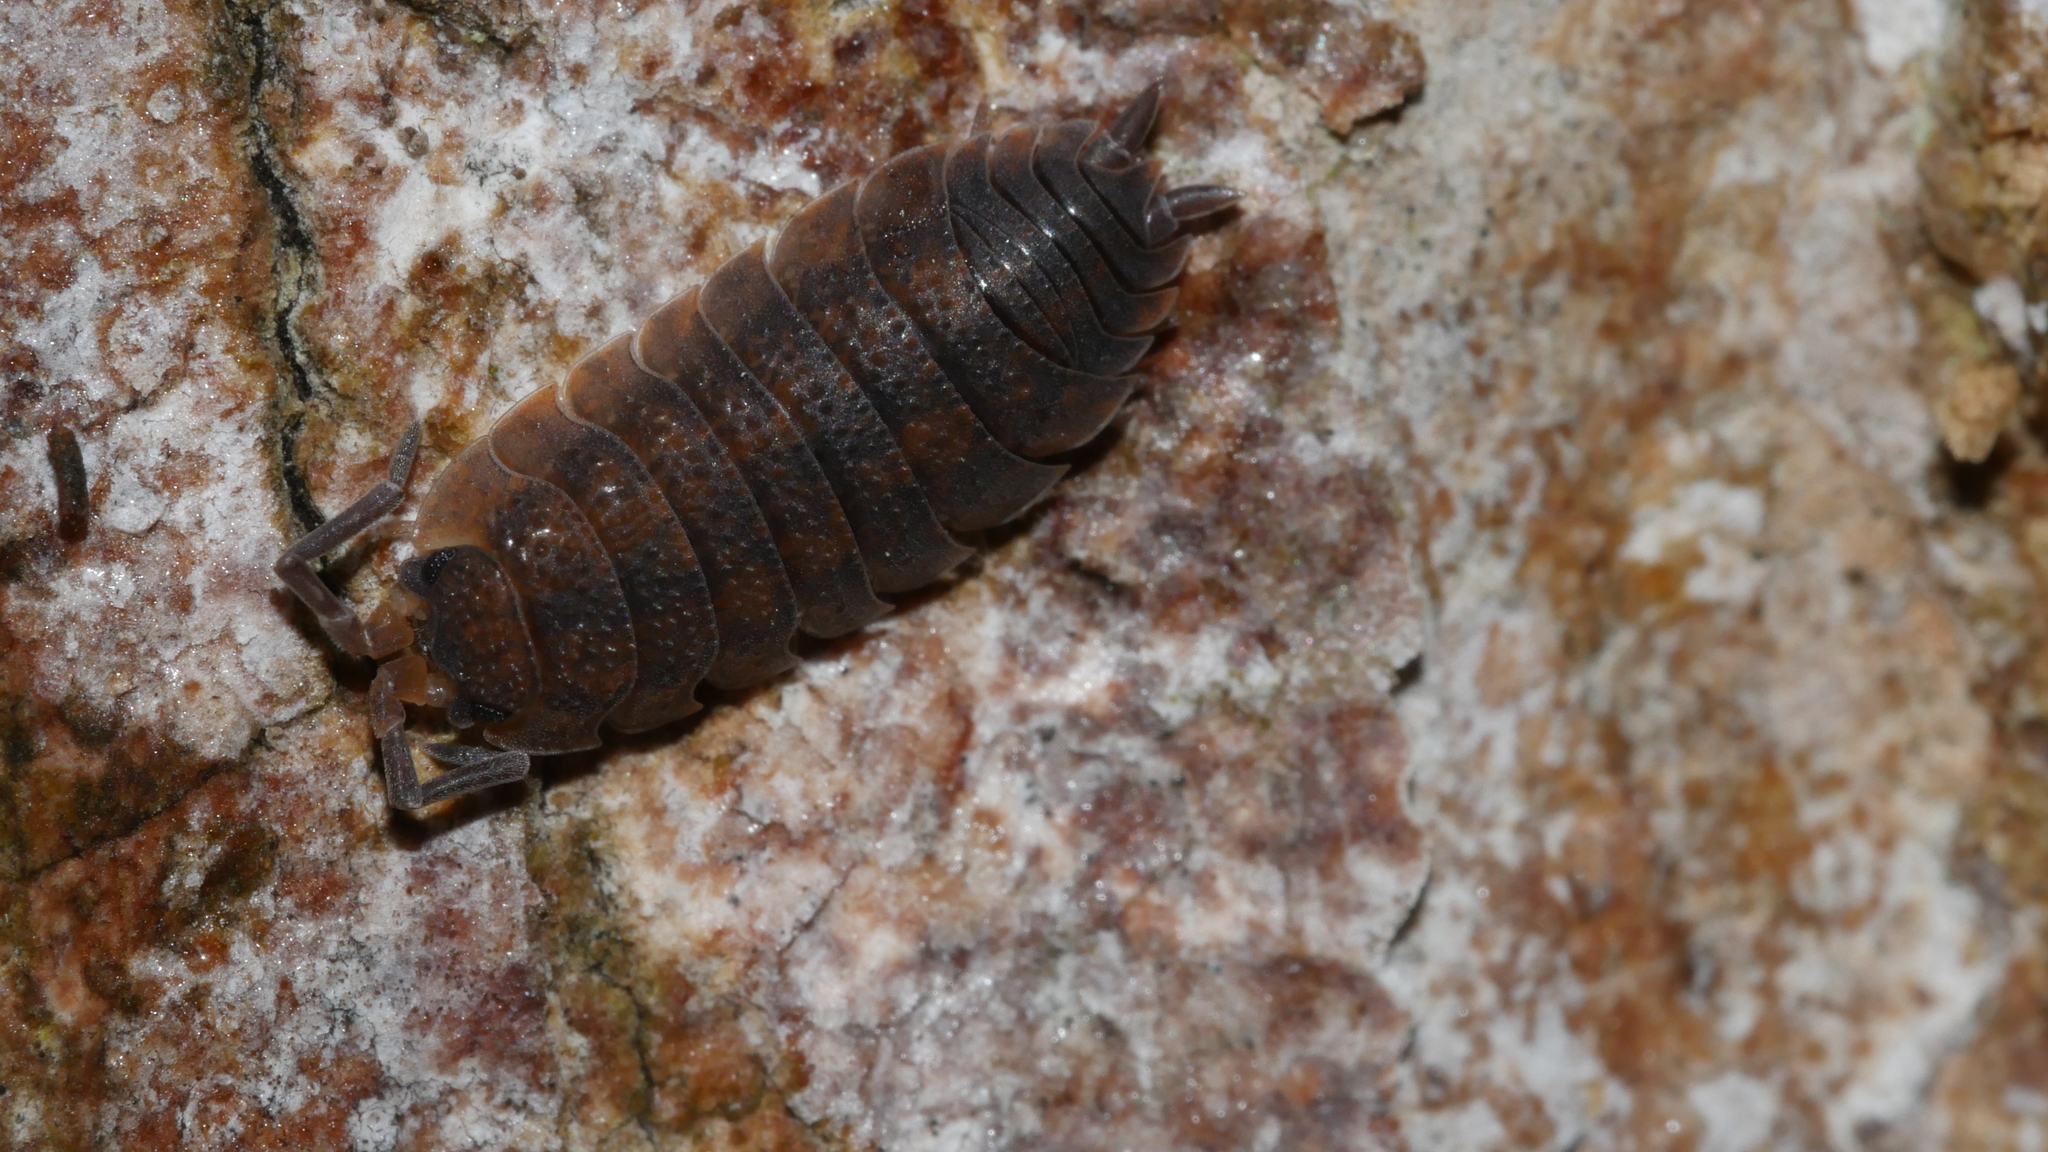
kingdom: Animalia
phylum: Arthropoda
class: Malacostraca
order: Isopoda
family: Porcellionidae
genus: Porcellio
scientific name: Porcellio scaber
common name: Common rough woodlouse
